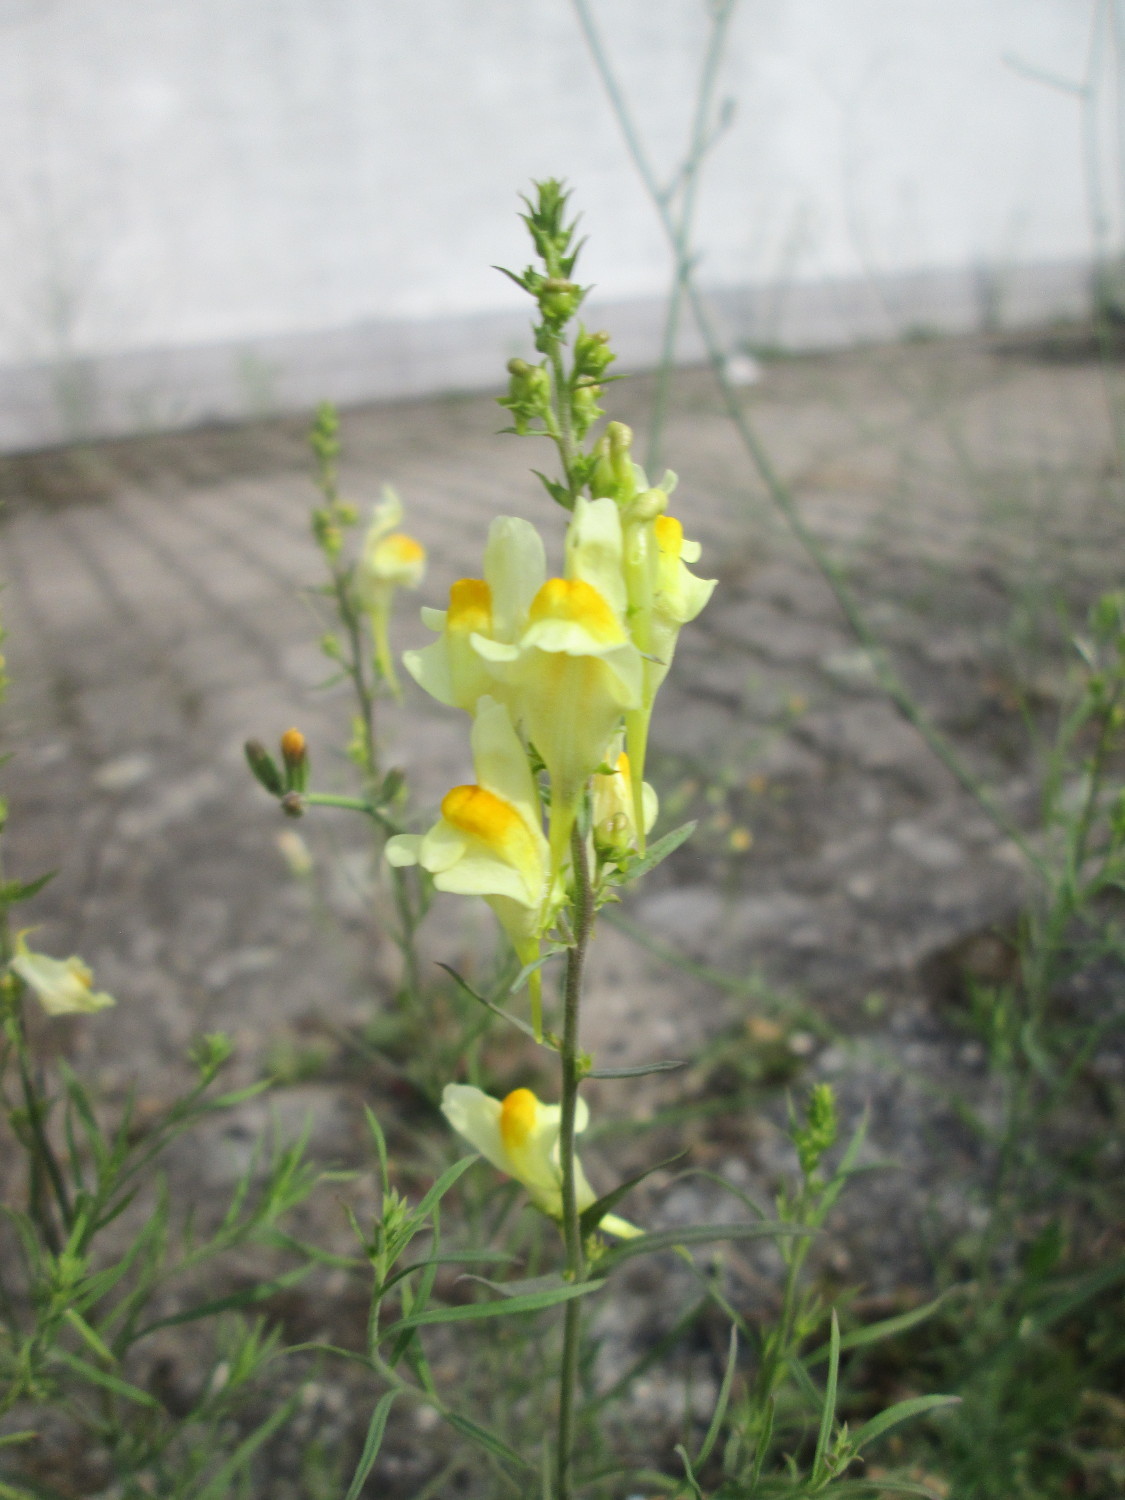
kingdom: Plantae
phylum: Tracheophyta
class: Magnoliopsida
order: Lamiales
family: Plantaginaceae
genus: Linaria
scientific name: Linaria vulgaris
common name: Butter and eggs
